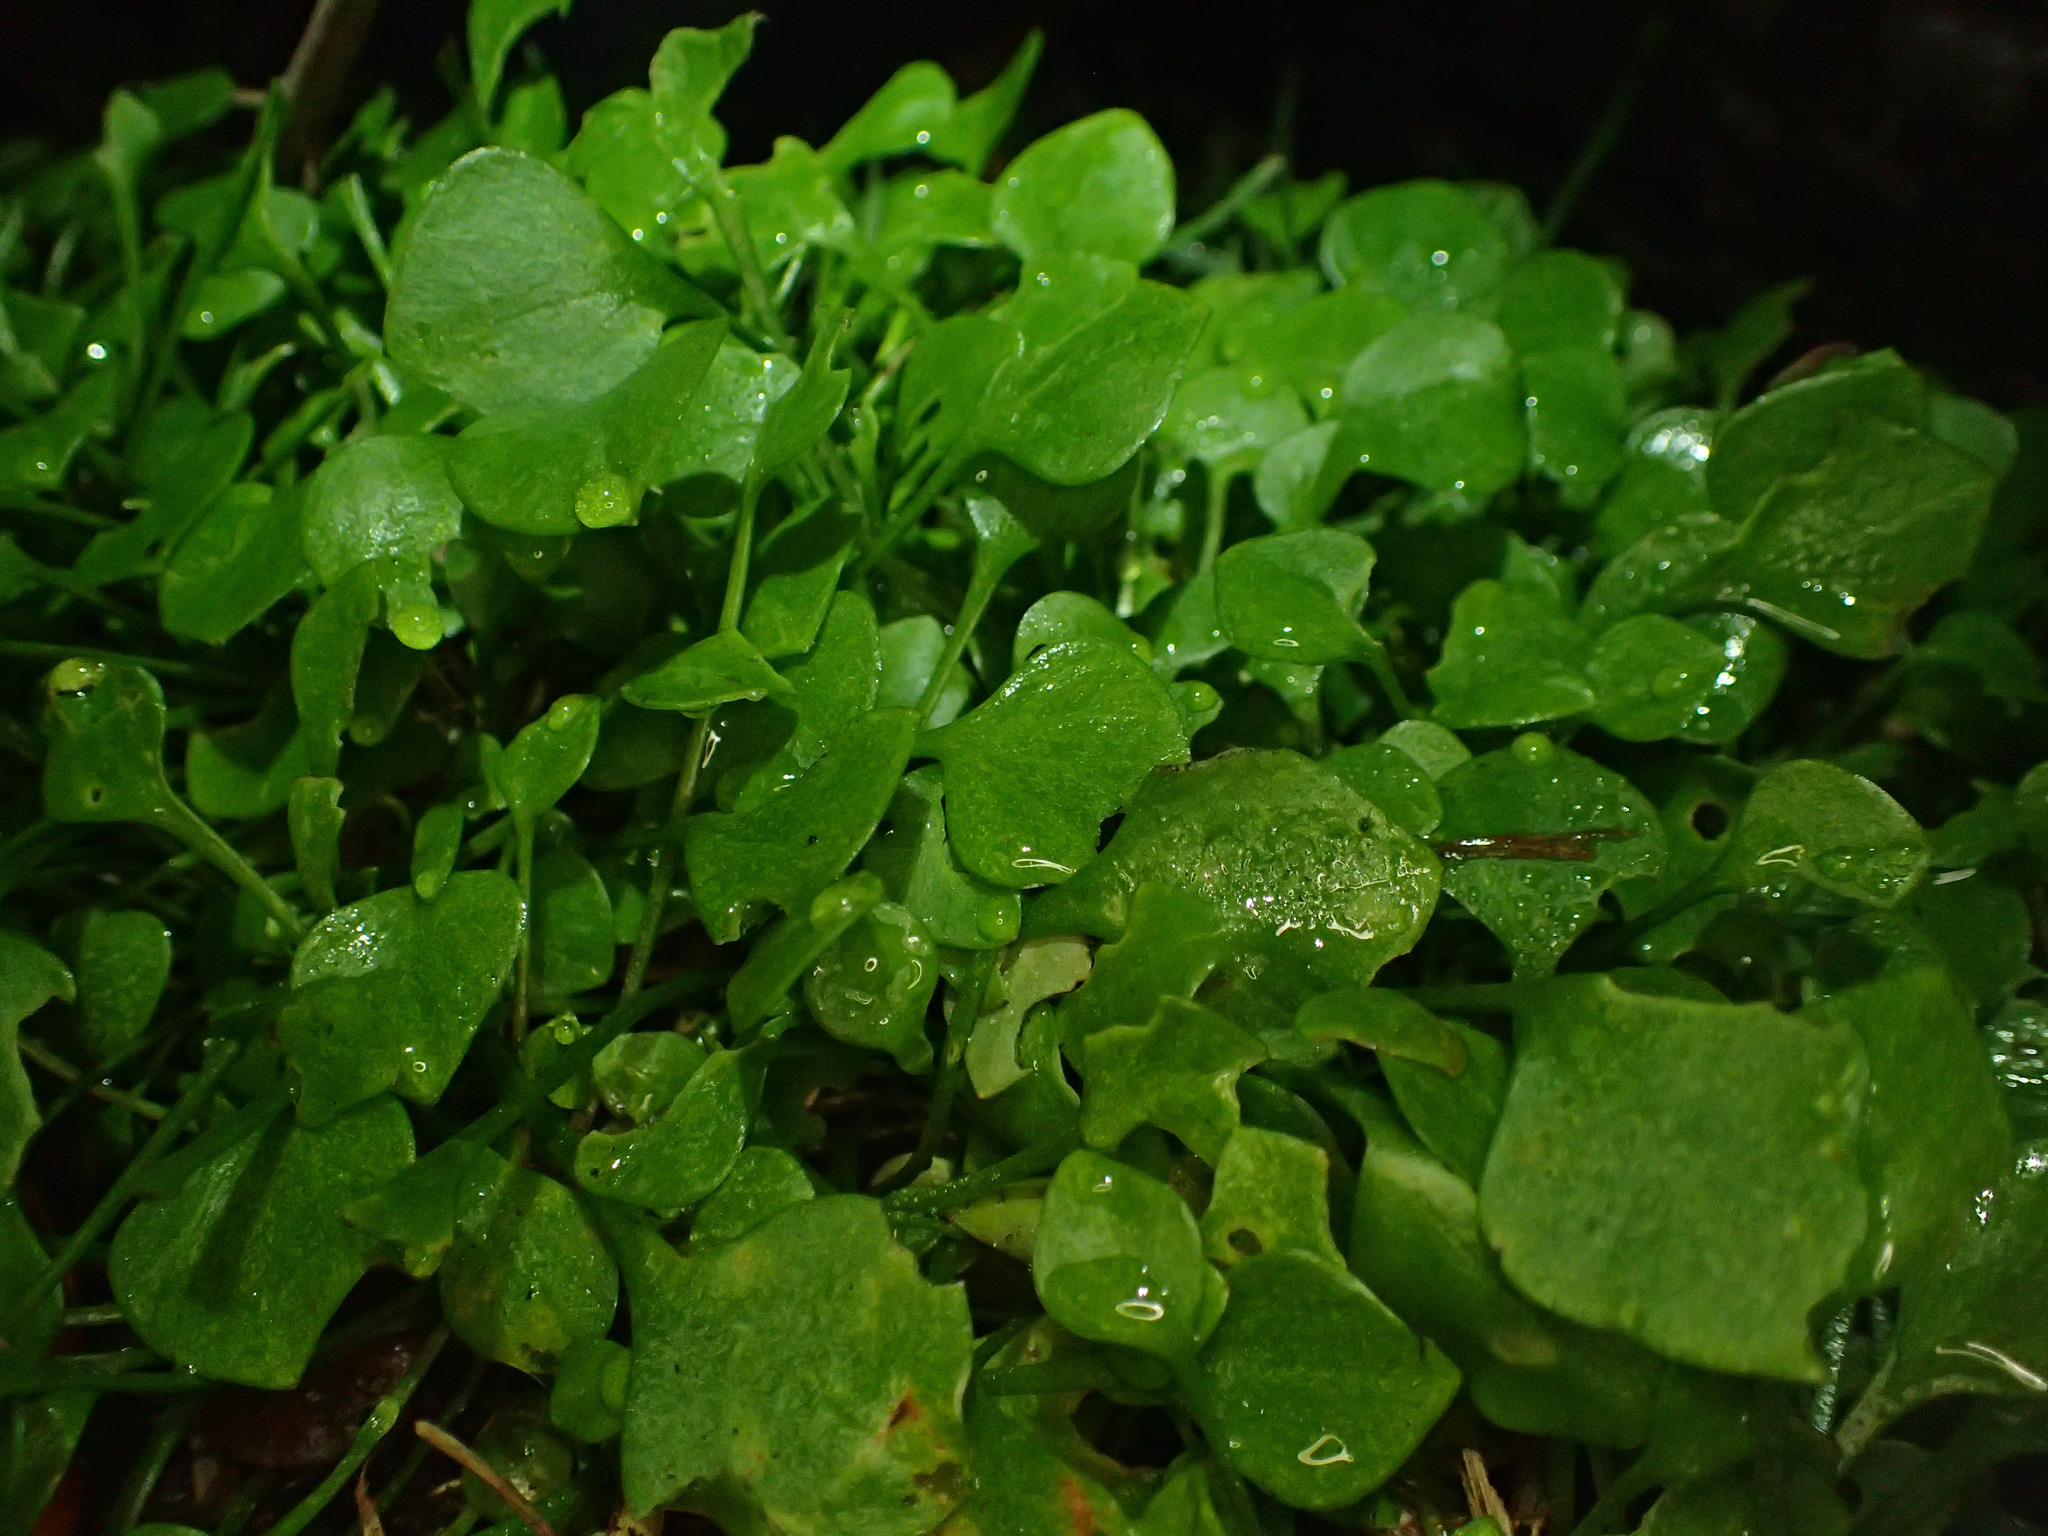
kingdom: Plantae
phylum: Tracheophyta
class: Magnoliopsida
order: Caryophyllales
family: Montiaceae
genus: Claytonia
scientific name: Claytonia perfoliata
